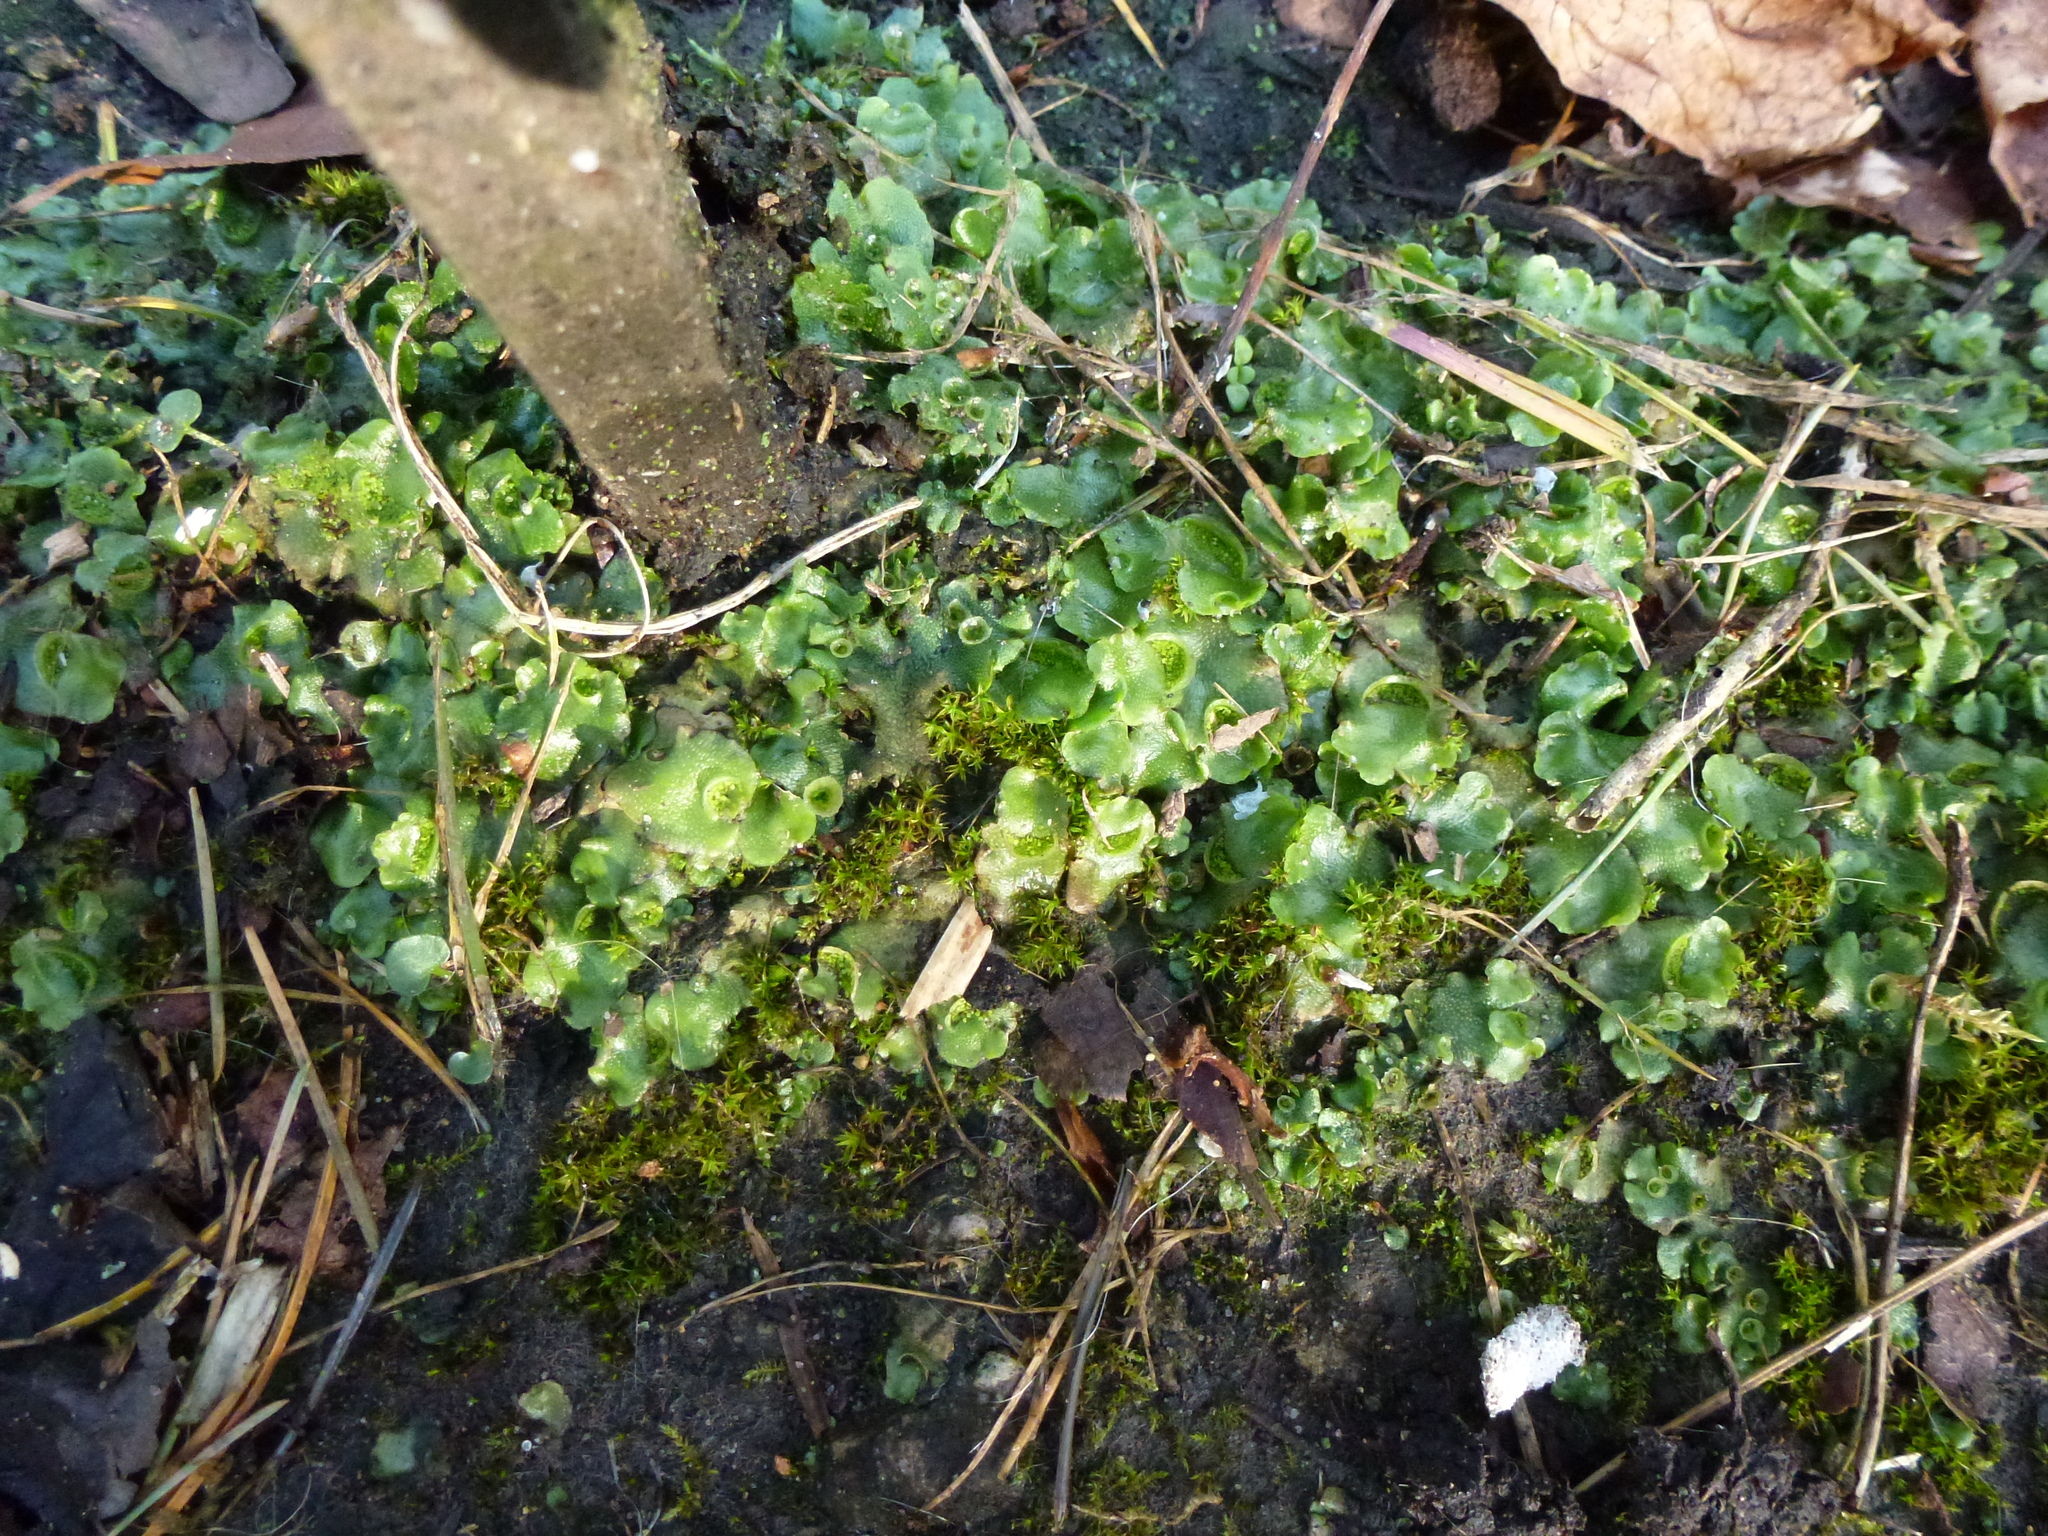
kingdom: Plantae
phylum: Marchantiophyta
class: Marchantiopsida
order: Lunulariales
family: Lunulariaceae
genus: Lunularia
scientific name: Lunularia cruciata
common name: Crescent-cup liverwort
